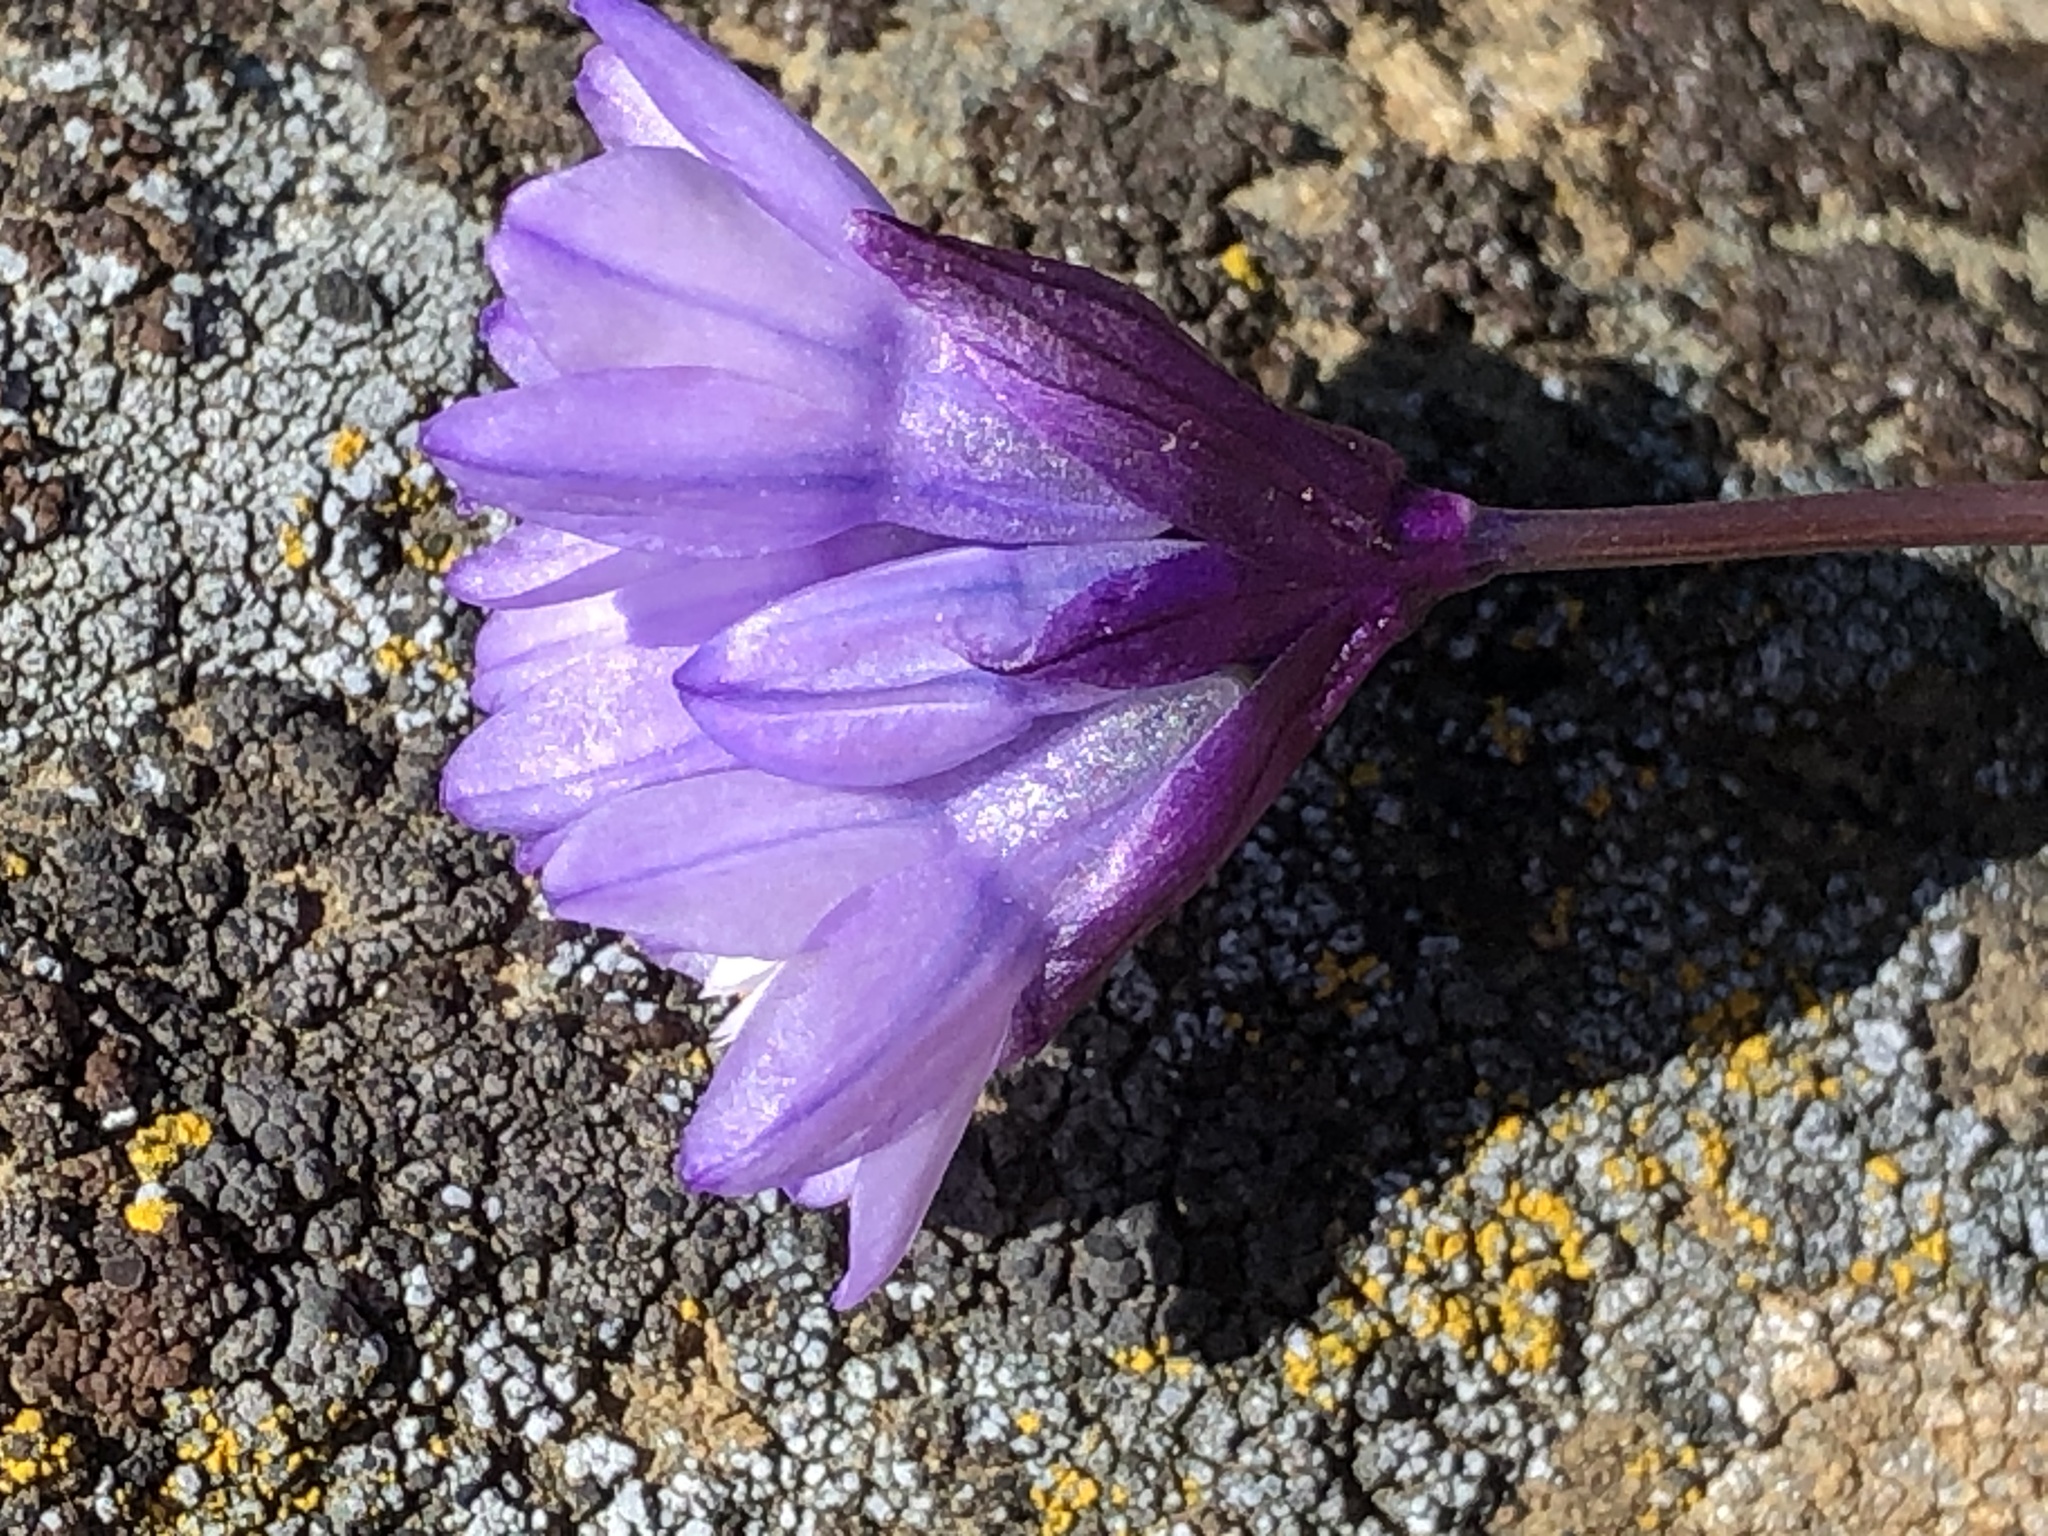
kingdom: Plantae
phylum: Tracheophyta
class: Liliopsida
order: Asparagales
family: Asparagaceae
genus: Dipterostemon
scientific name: Dipterostemon capitatus
